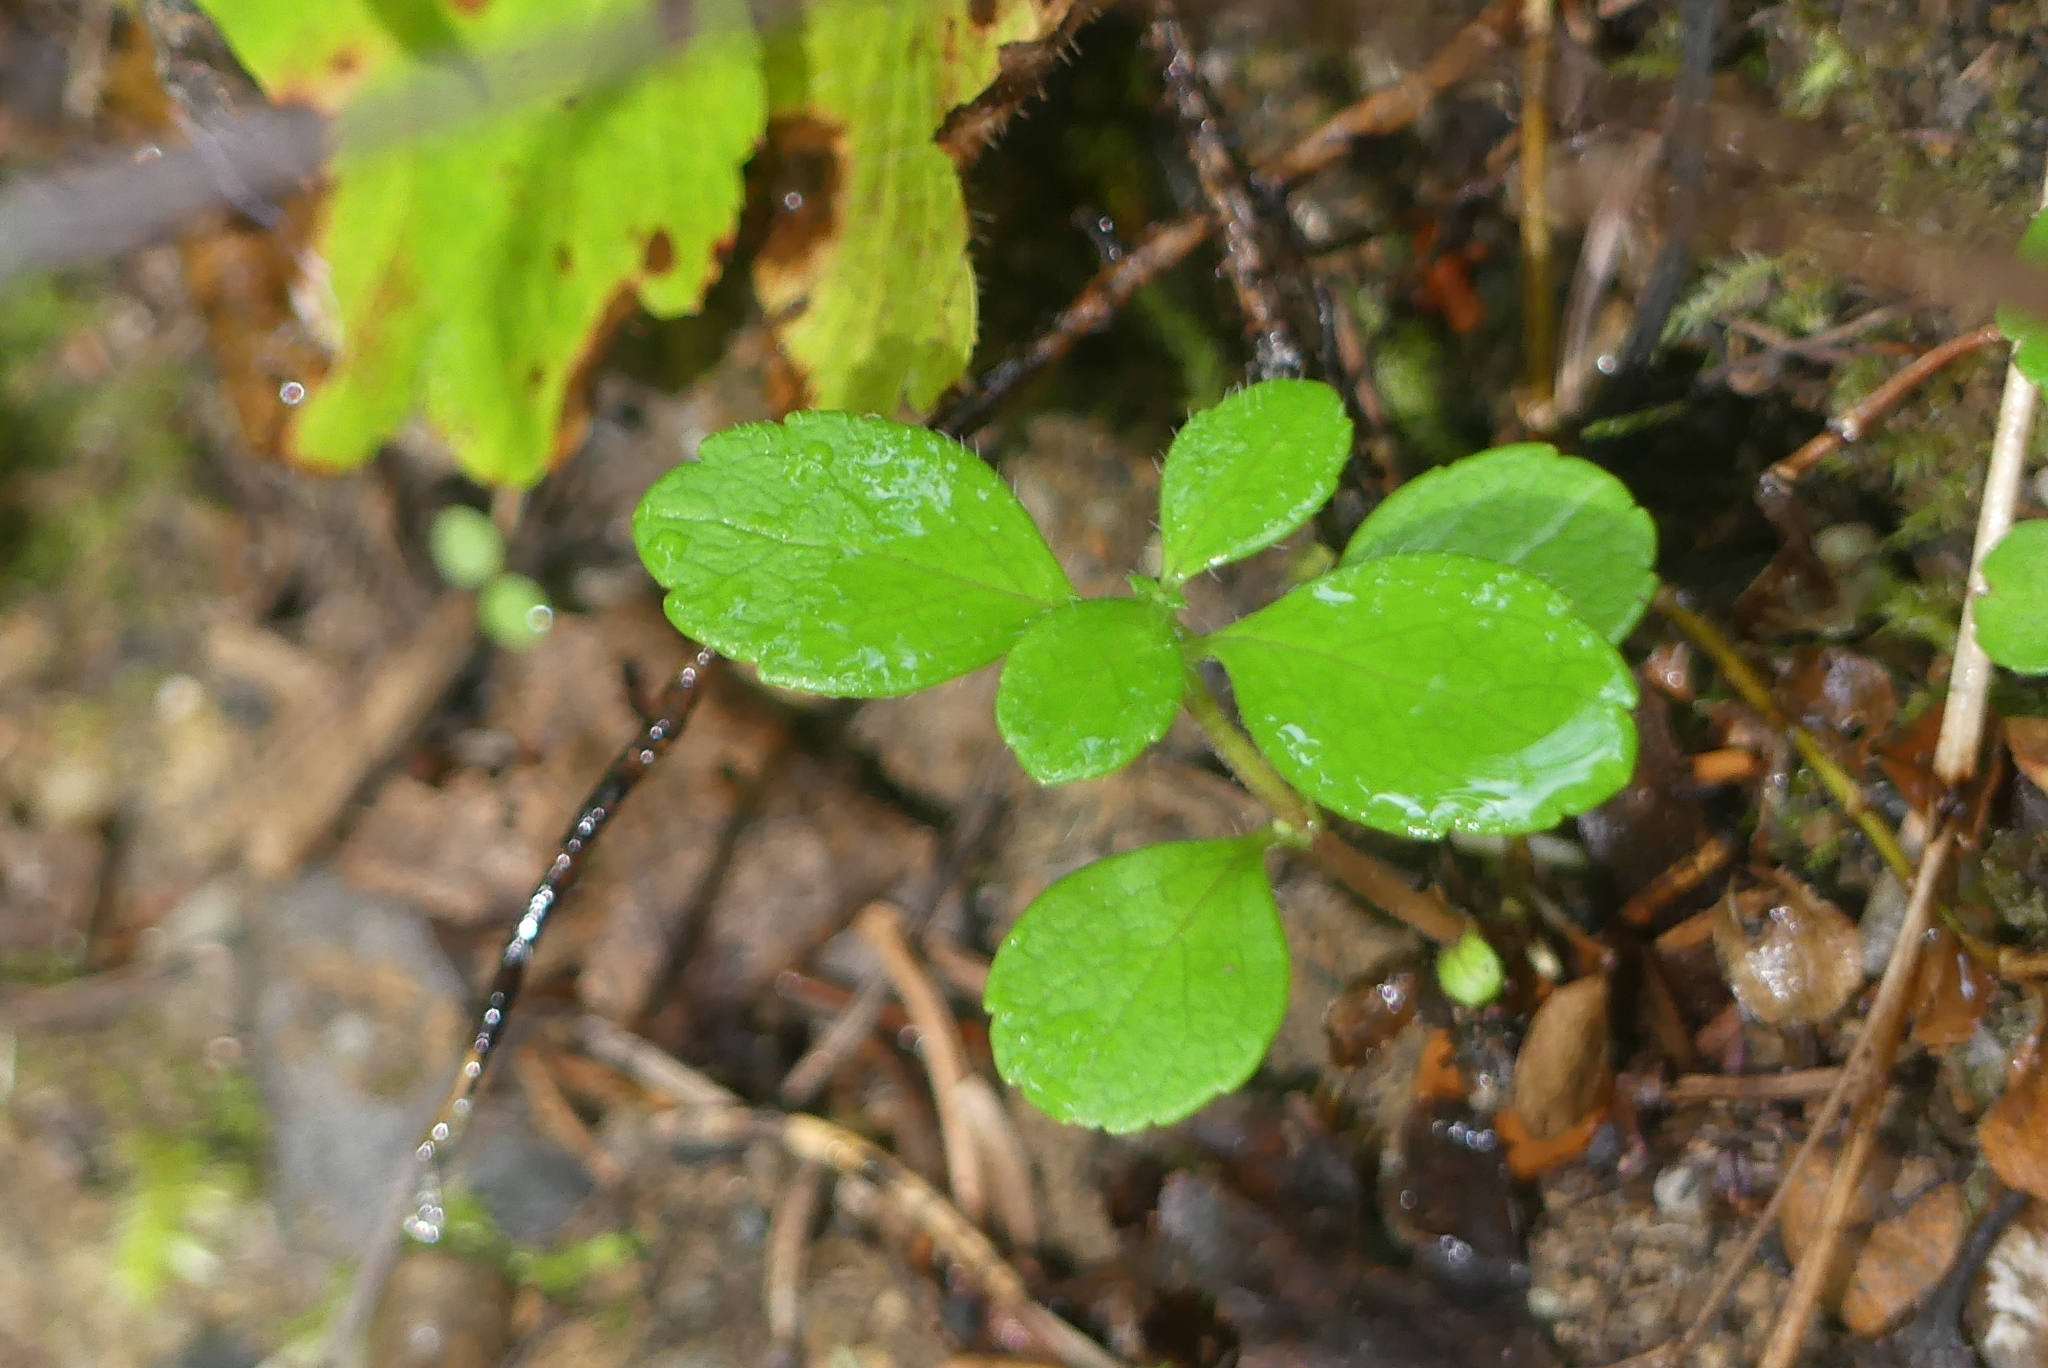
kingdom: Plantae
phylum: Tracheophyta
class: Magnoliopsida
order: Dipsacales
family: Caprifoliaceae
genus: Linnaea
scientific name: Linnaea borealis
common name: Twinflower
